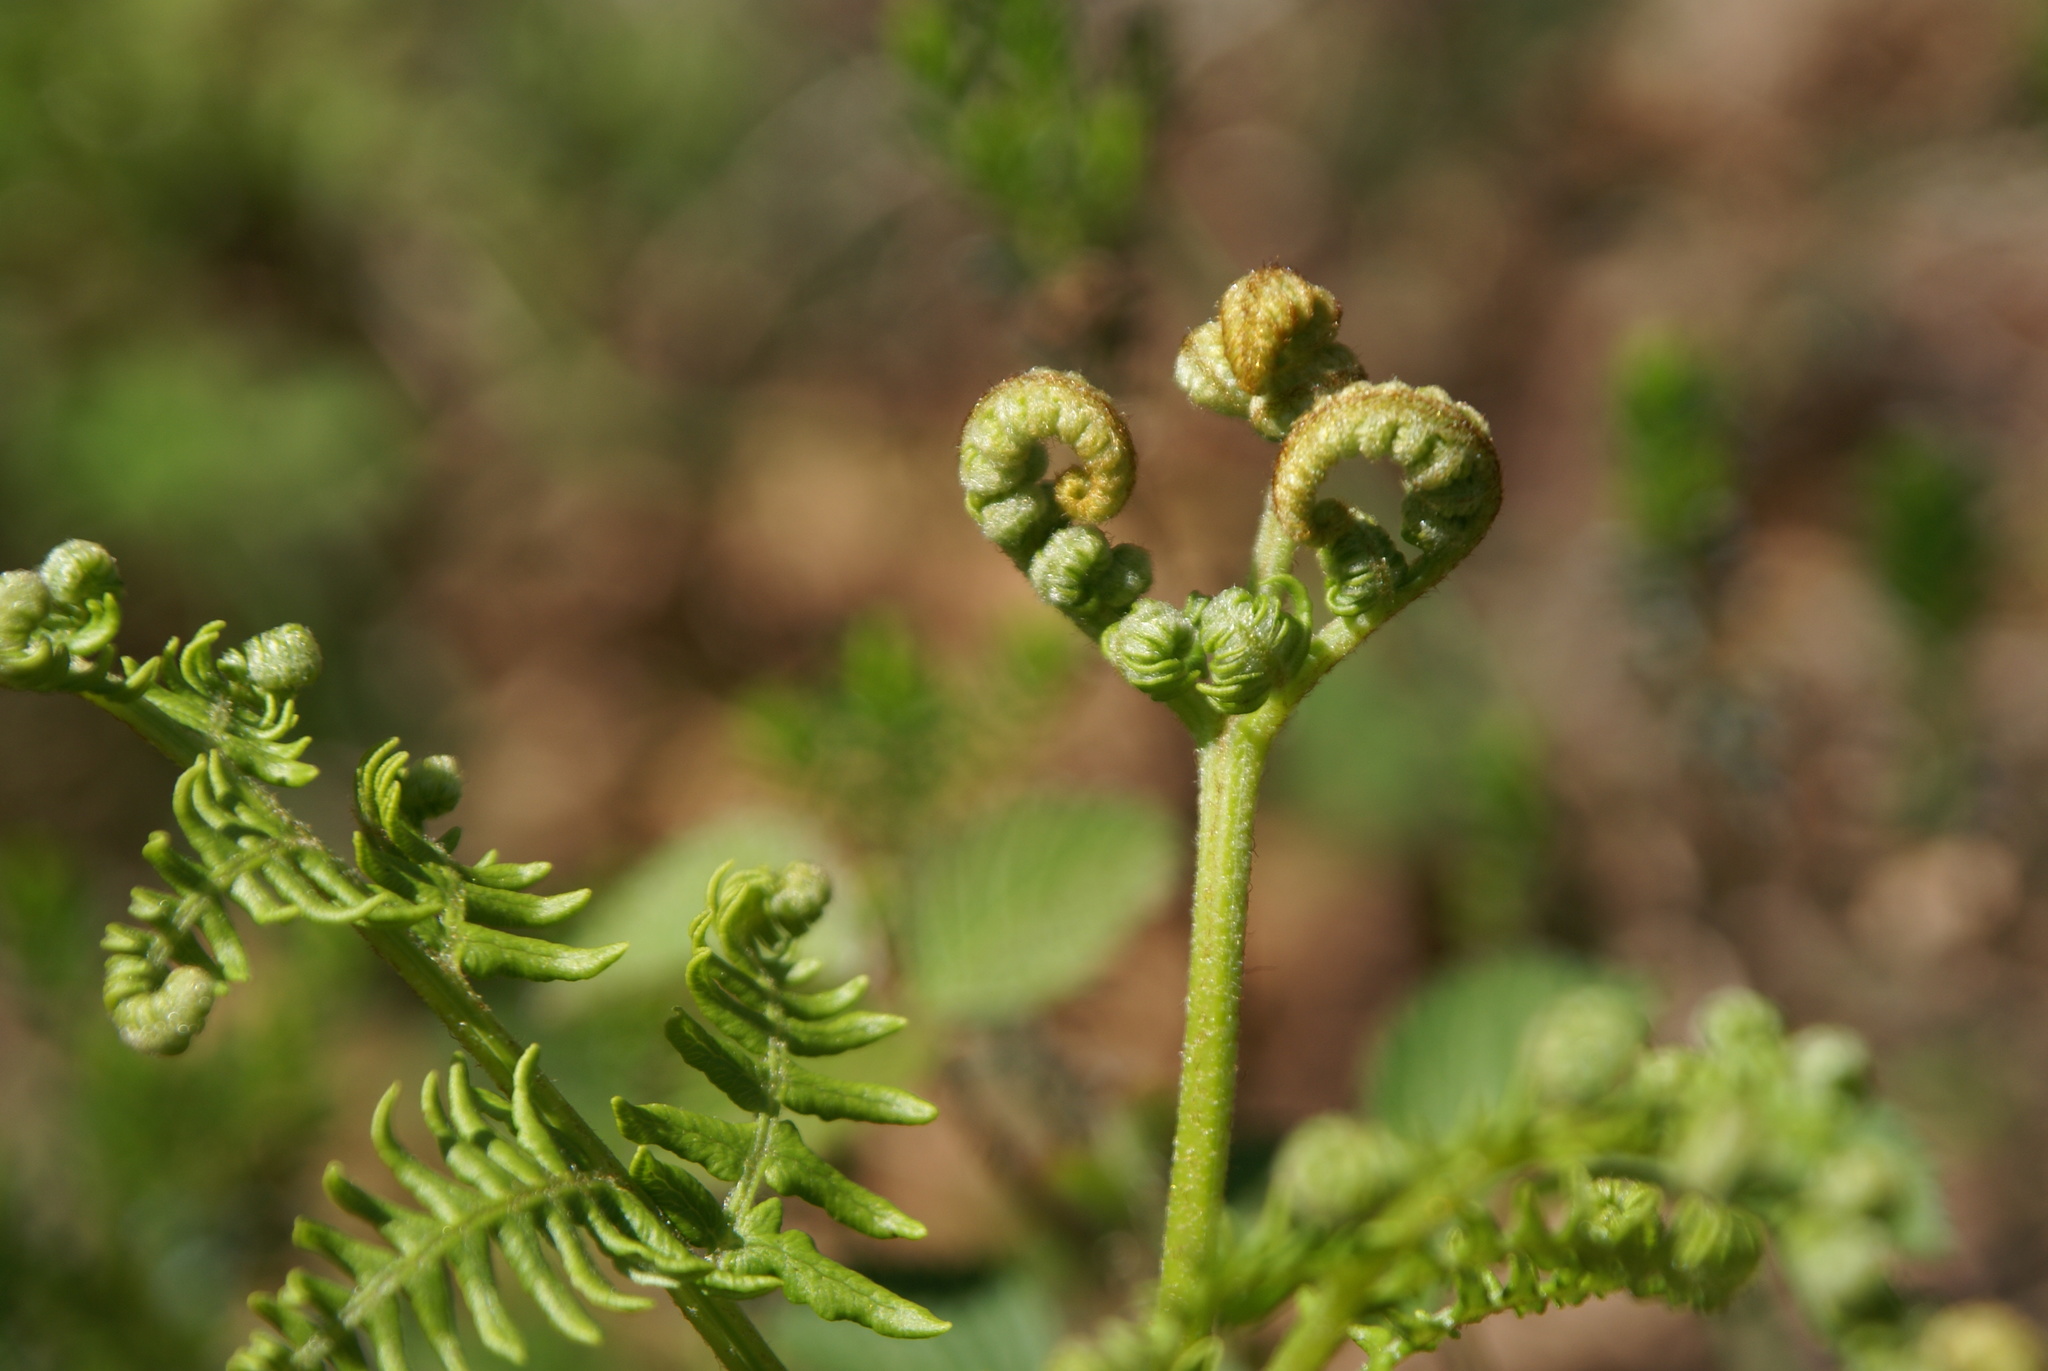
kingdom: Plantae
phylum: Tracheophyta
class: Polypodiopsida
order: Polypodiales
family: Dennstaedtiaceae
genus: Pteridium
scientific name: Pteridium aquilinum
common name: Bracken
